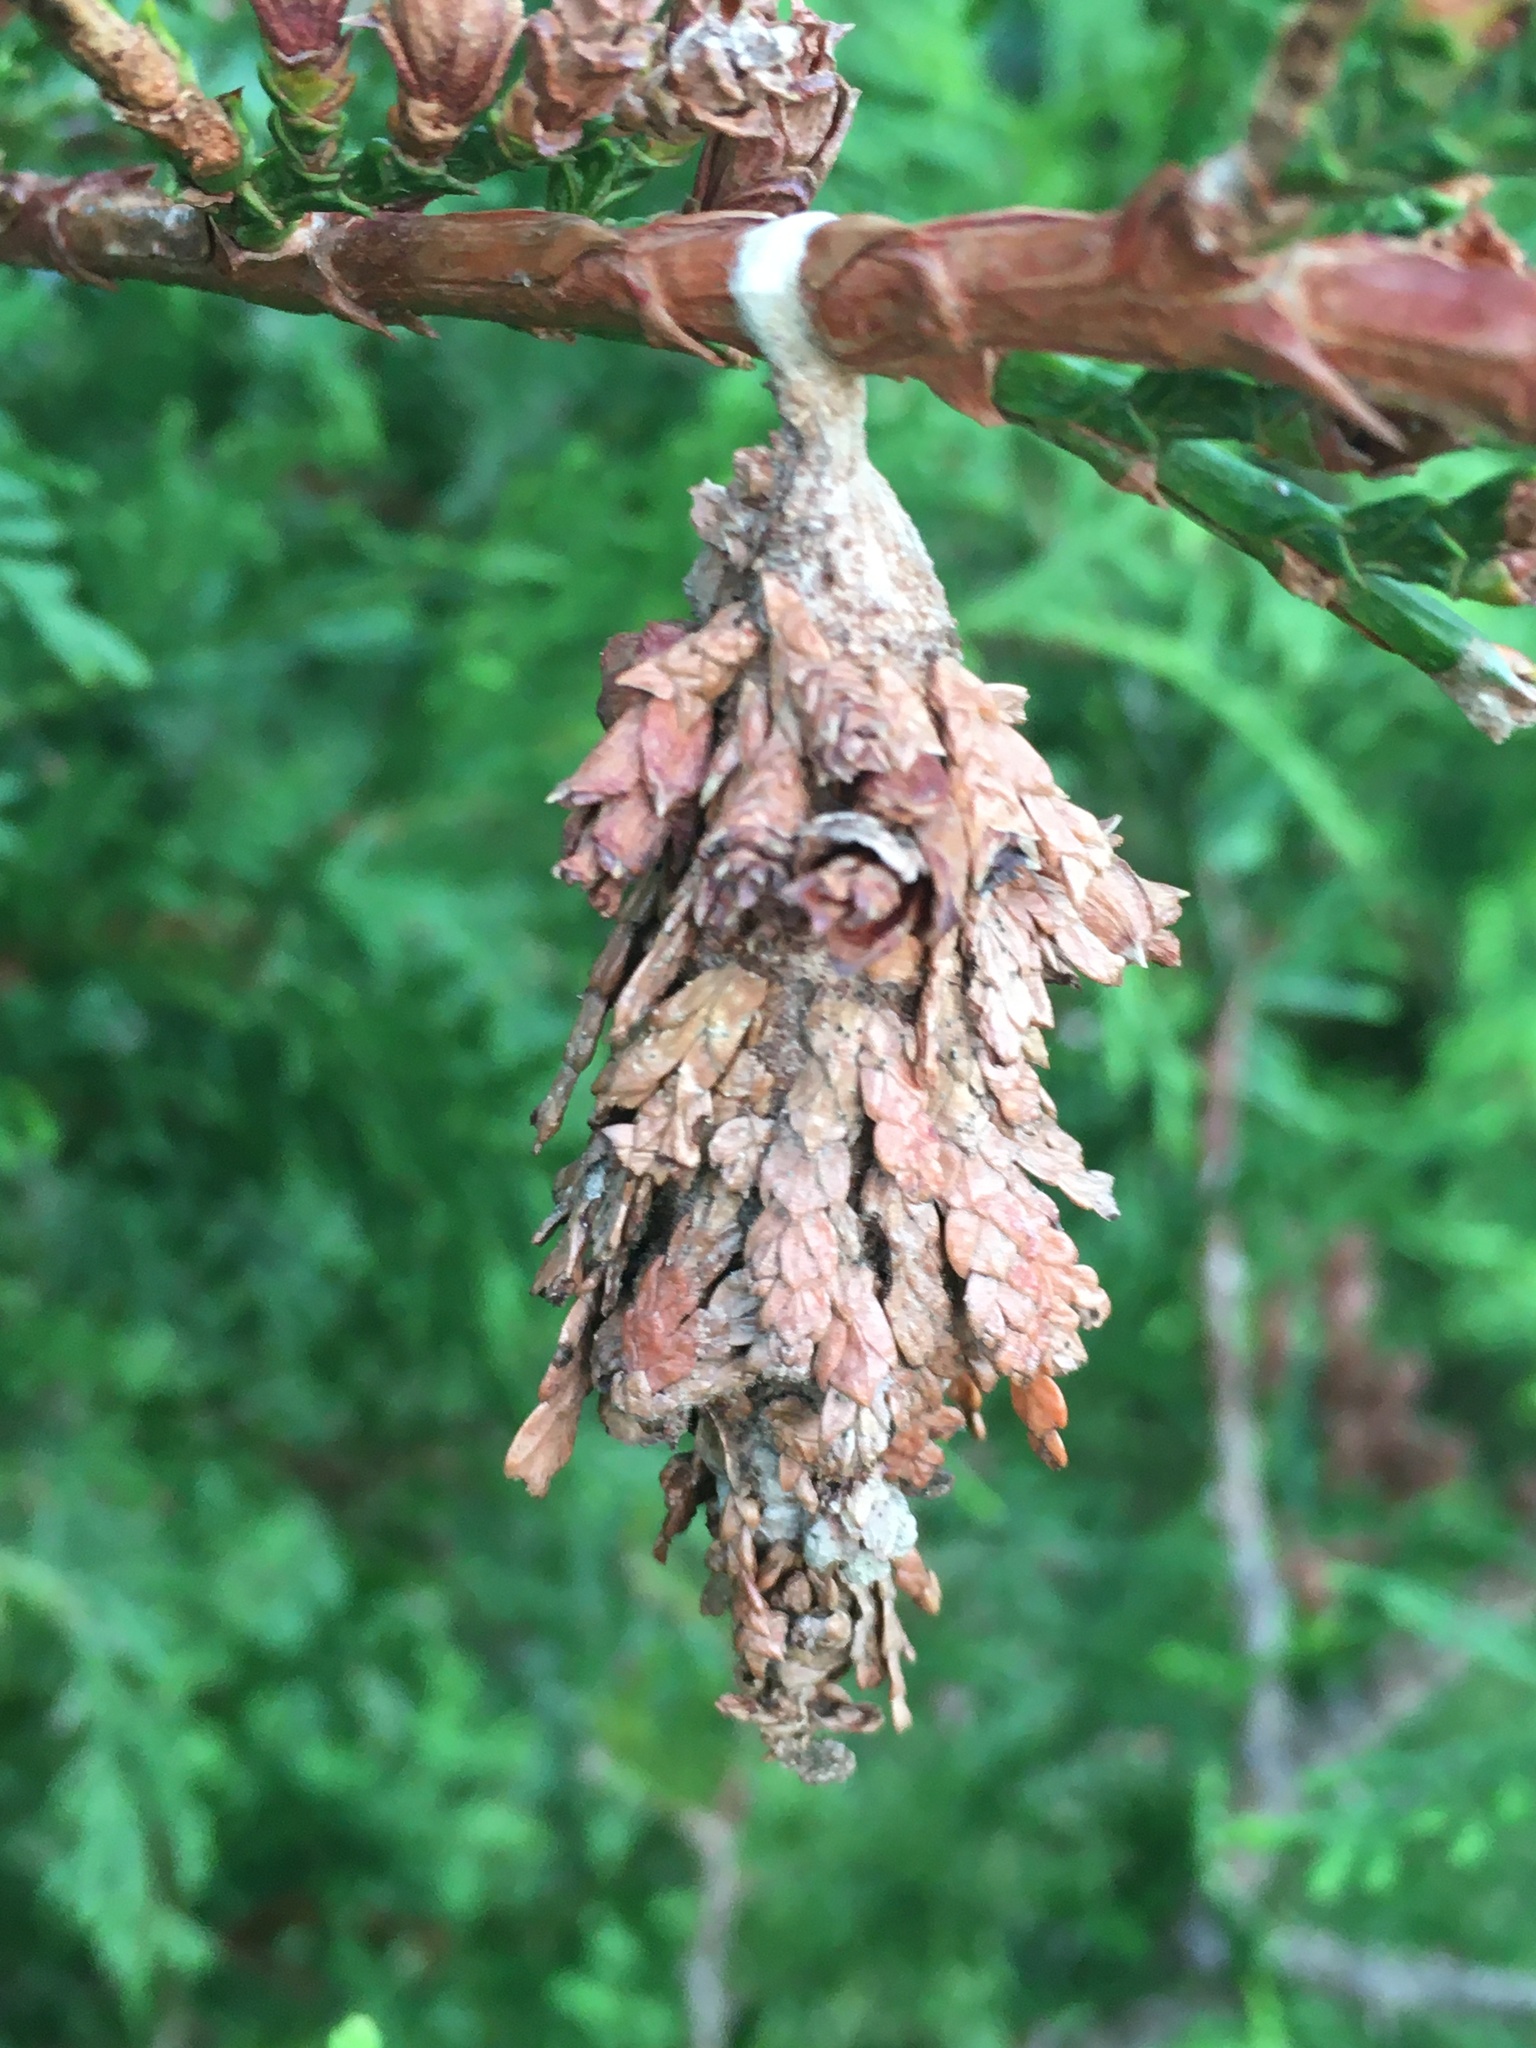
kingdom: Animalia
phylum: Arthropoda
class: Insecta
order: Lepidoptera
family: Psychidae
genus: Thyridopteryx
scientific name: Thyridopteryx ephemeraeformis
